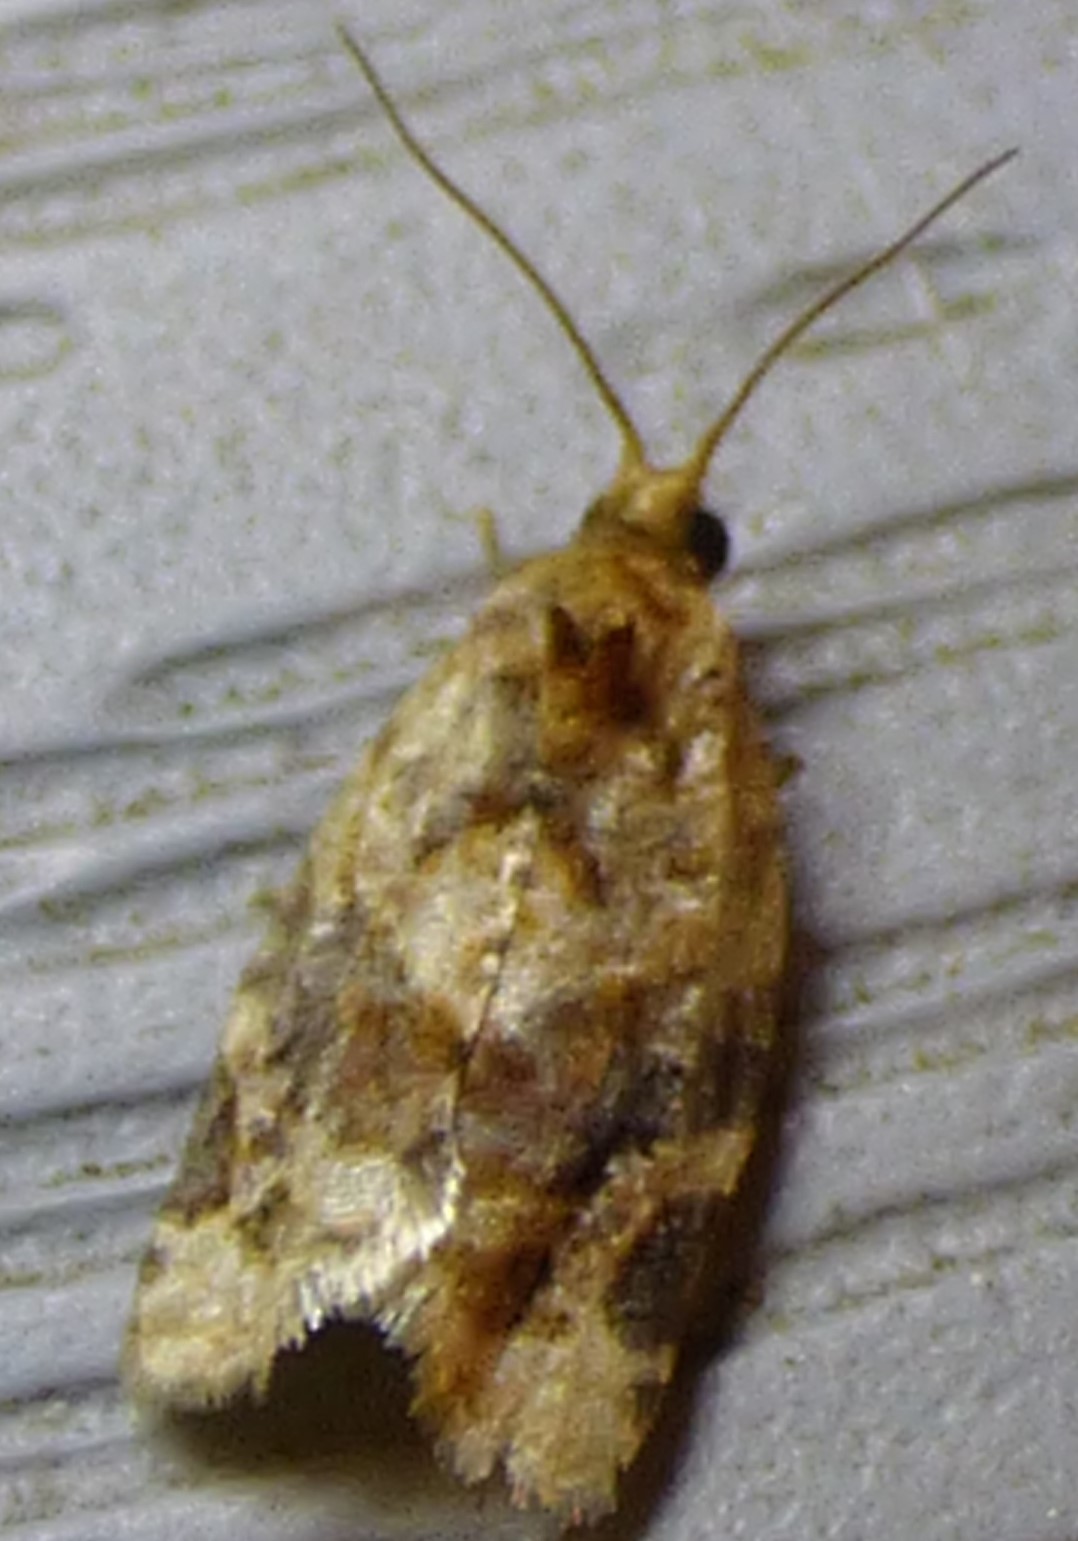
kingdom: Animalia
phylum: Arthropoda
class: Insecta
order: Lepidoptera
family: Tortricidae
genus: Argyrotaenia
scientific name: Argyrotaenia velutinana
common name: Red-banded leafroller moth
